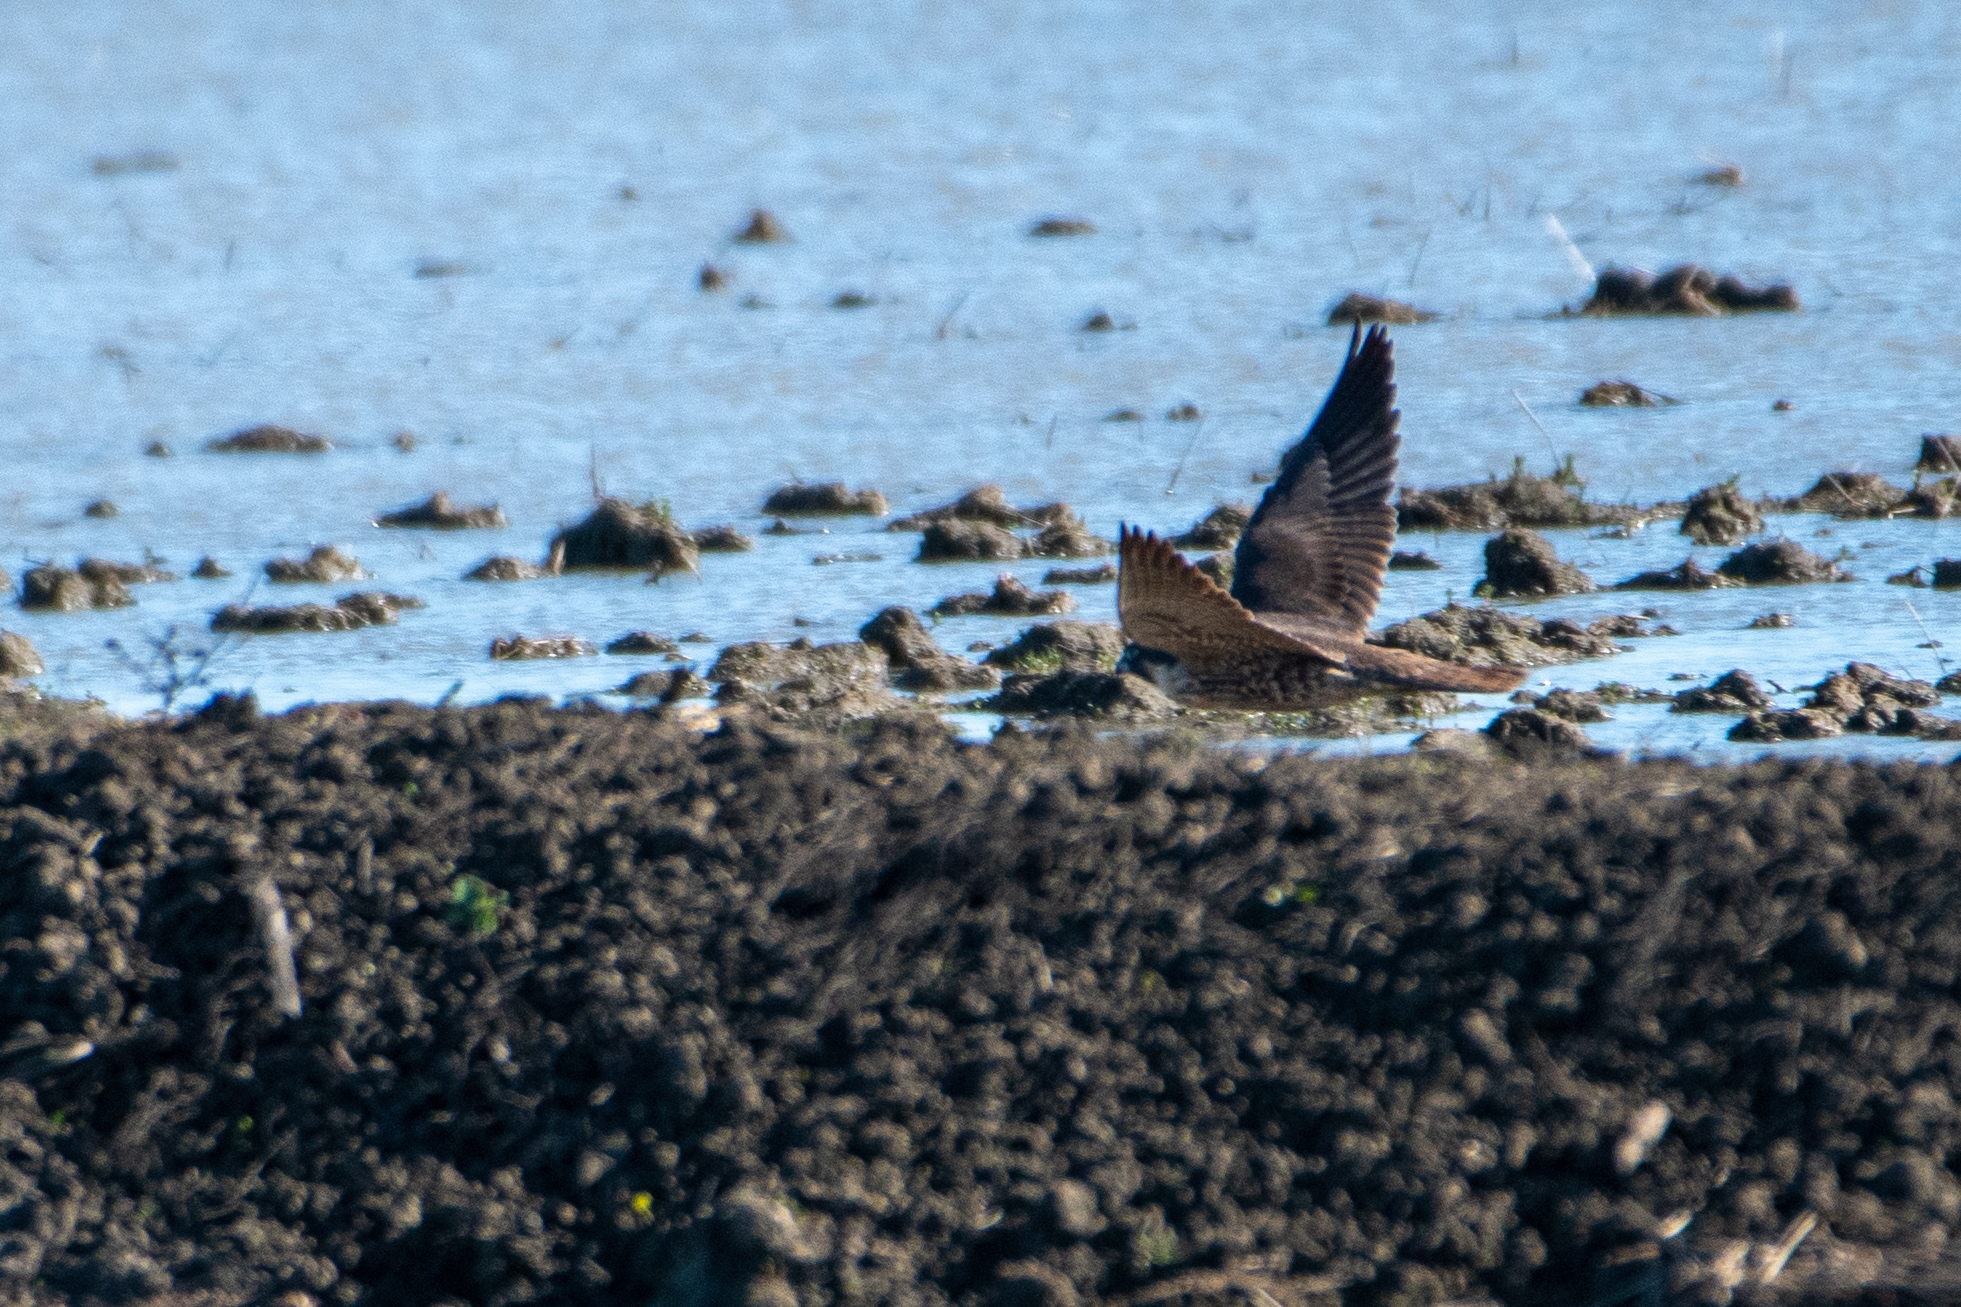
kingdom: Animalia
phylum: Chordata
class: Aves
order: Falconiformes
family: Falconidae
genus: Falco
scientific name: Falco peregrinus
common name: Peregrine falcon
